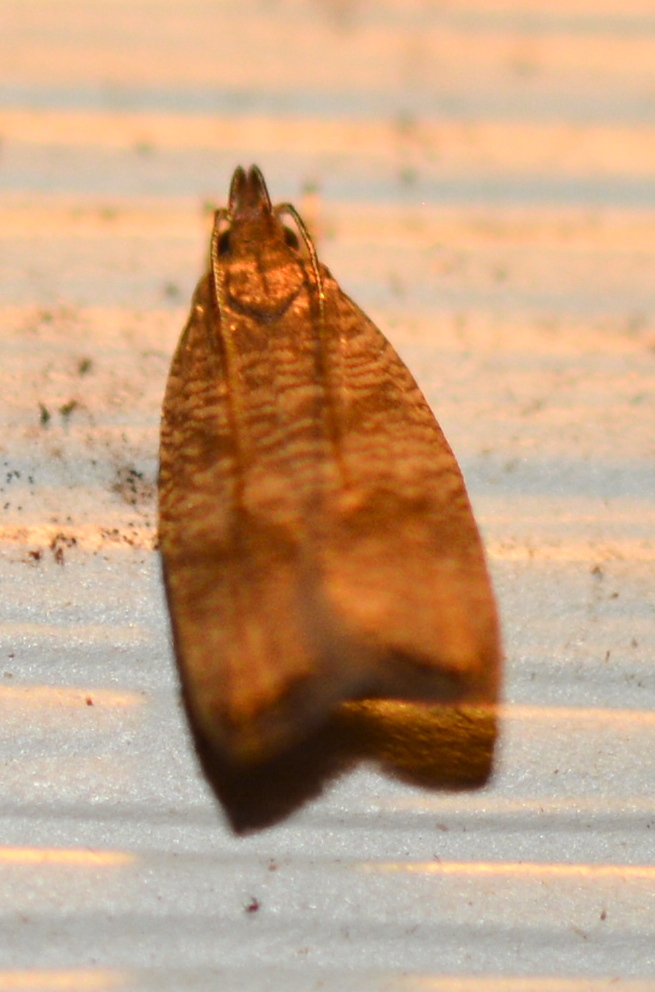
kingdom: Animalia
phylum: Arthropoda
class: Insecta
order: Lepidoptera
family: Depressariidae
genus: Psilocorsis
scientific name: Psilocorsis cryptolechiella
